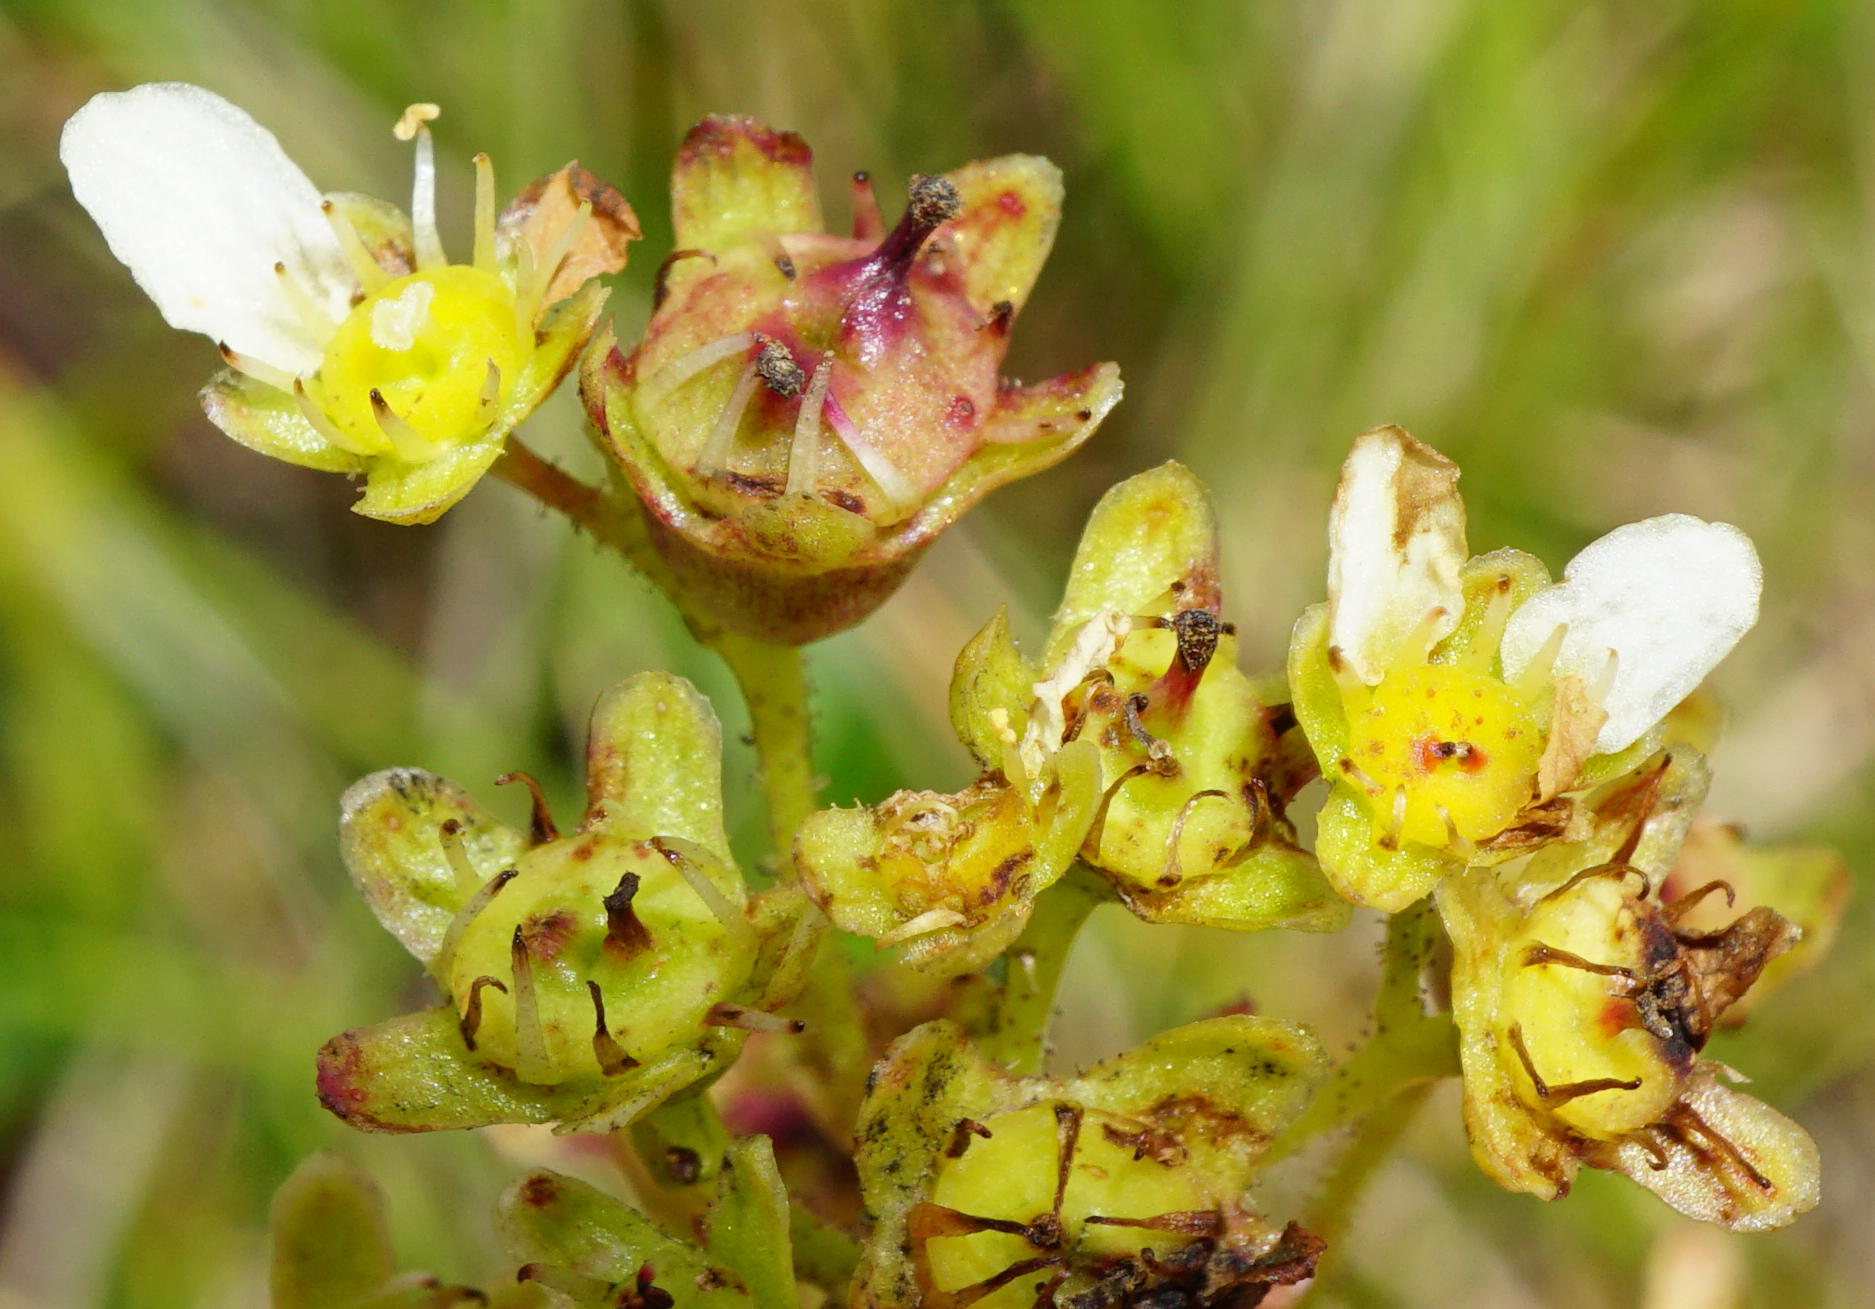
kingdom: Plantae
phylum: Tracheophyta
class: Magnoliopsida
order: Saxifragales
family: Saxifragaceae
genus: Saxifraga
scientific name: Saxifraga paniculata
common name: Livelong saxifrage
